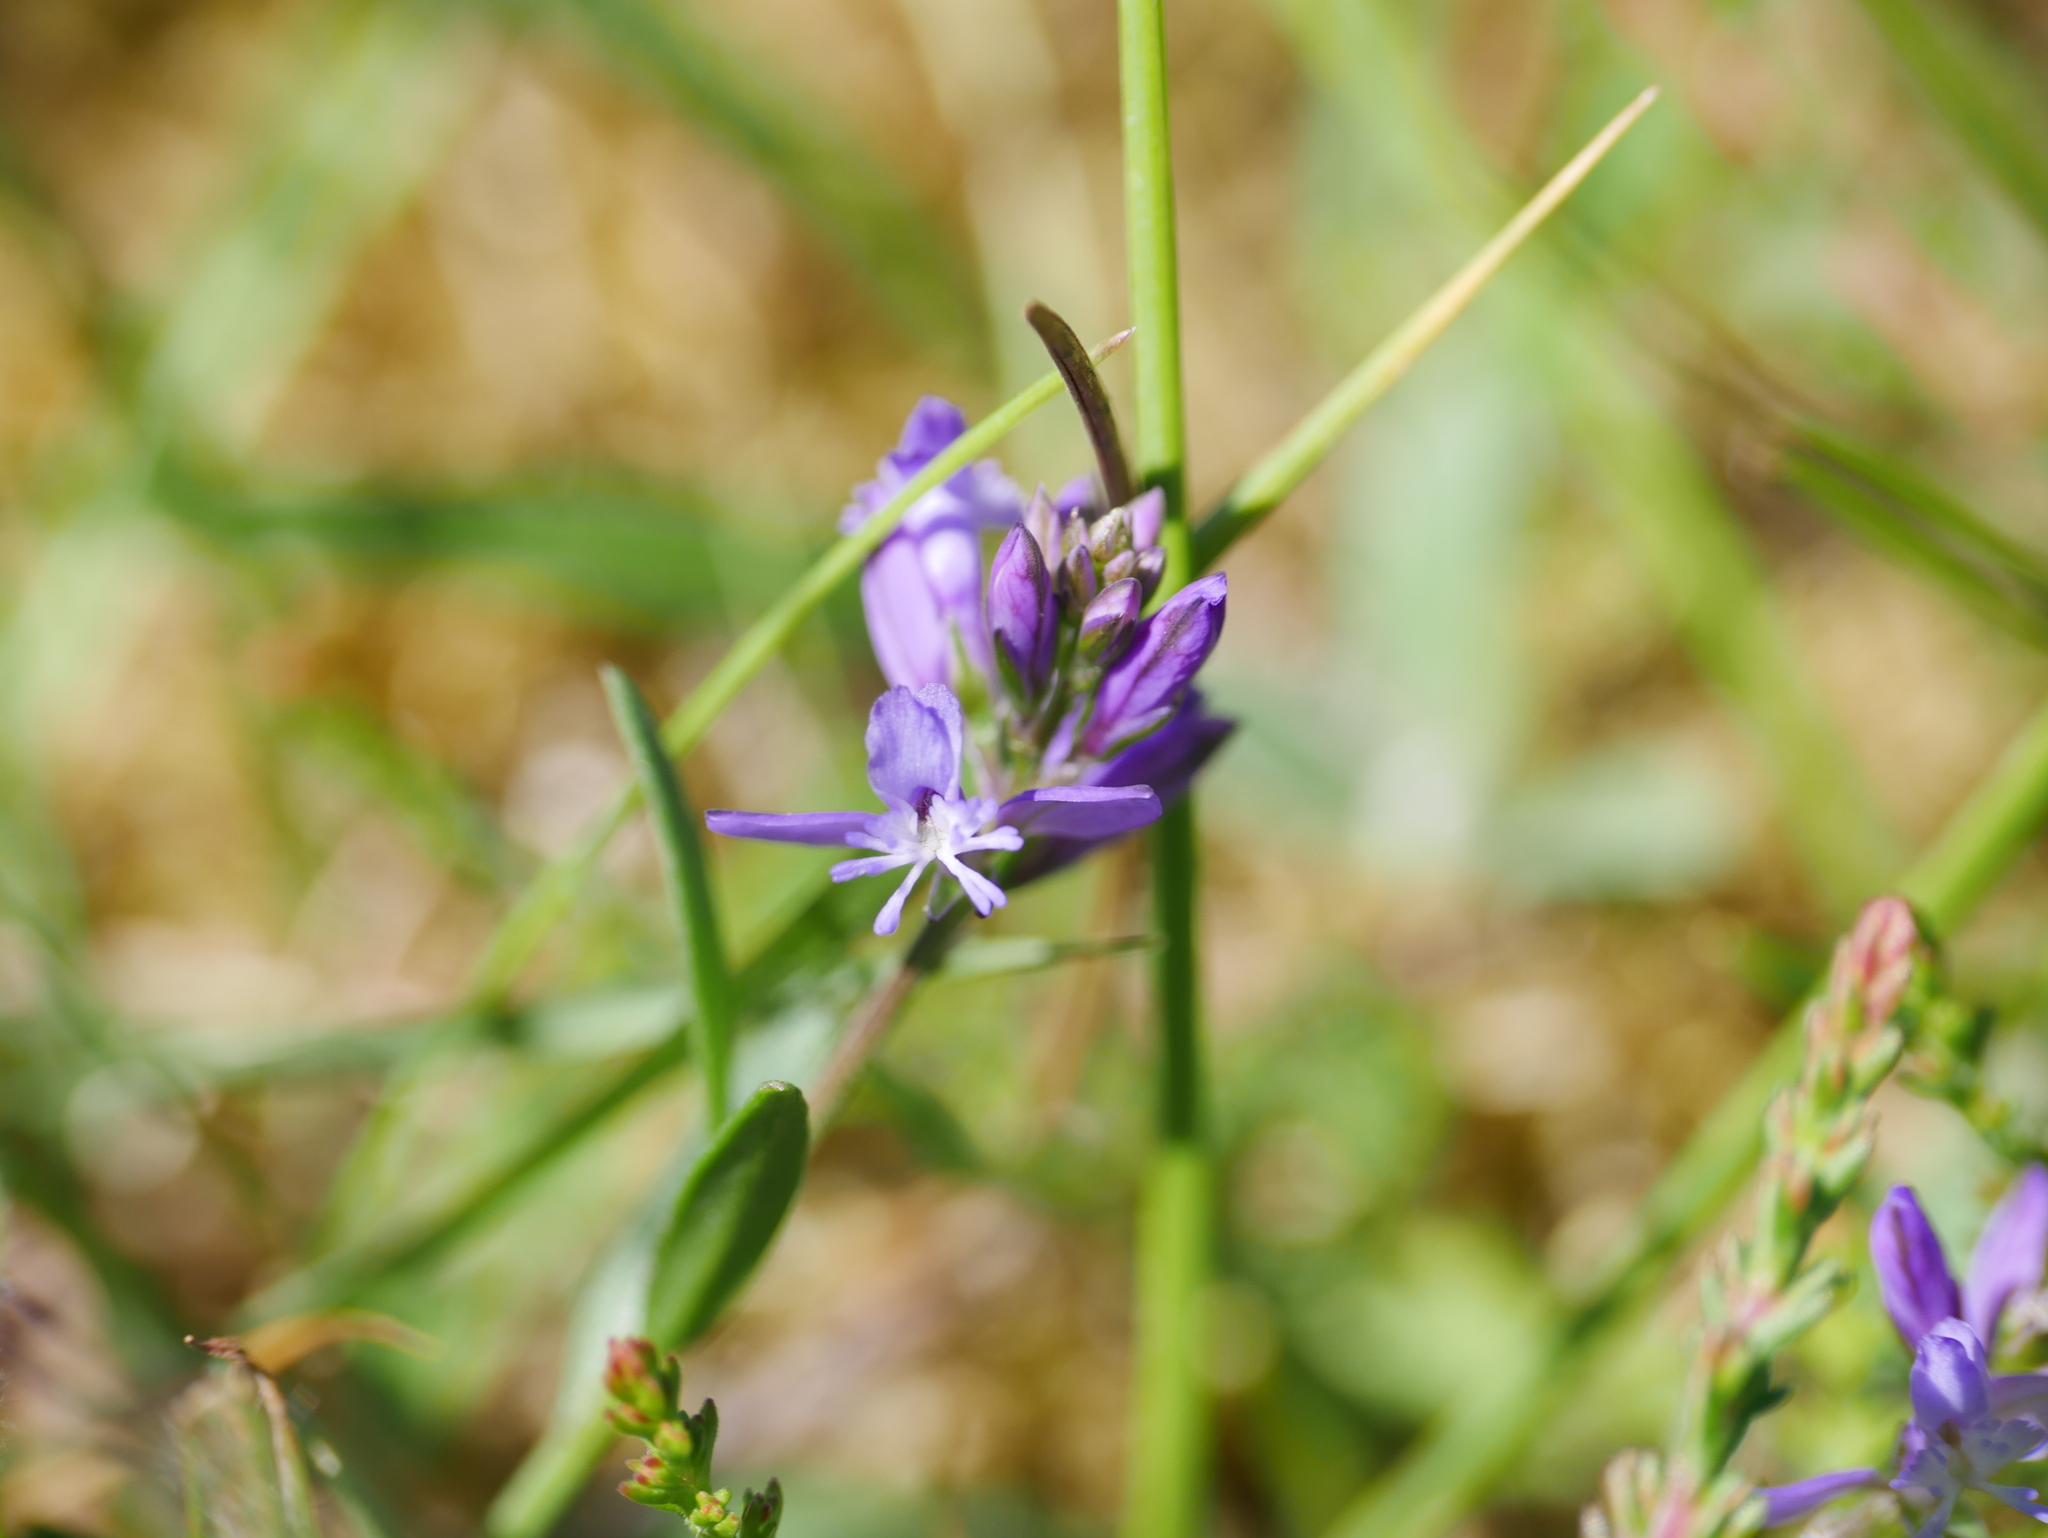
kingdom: Plantae
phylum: Tracheophyta
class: Magnoliopsida
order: Fabales
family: Polygalaceae
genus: Polygala
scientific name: Polygala vulgaris
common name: Common milkwort
